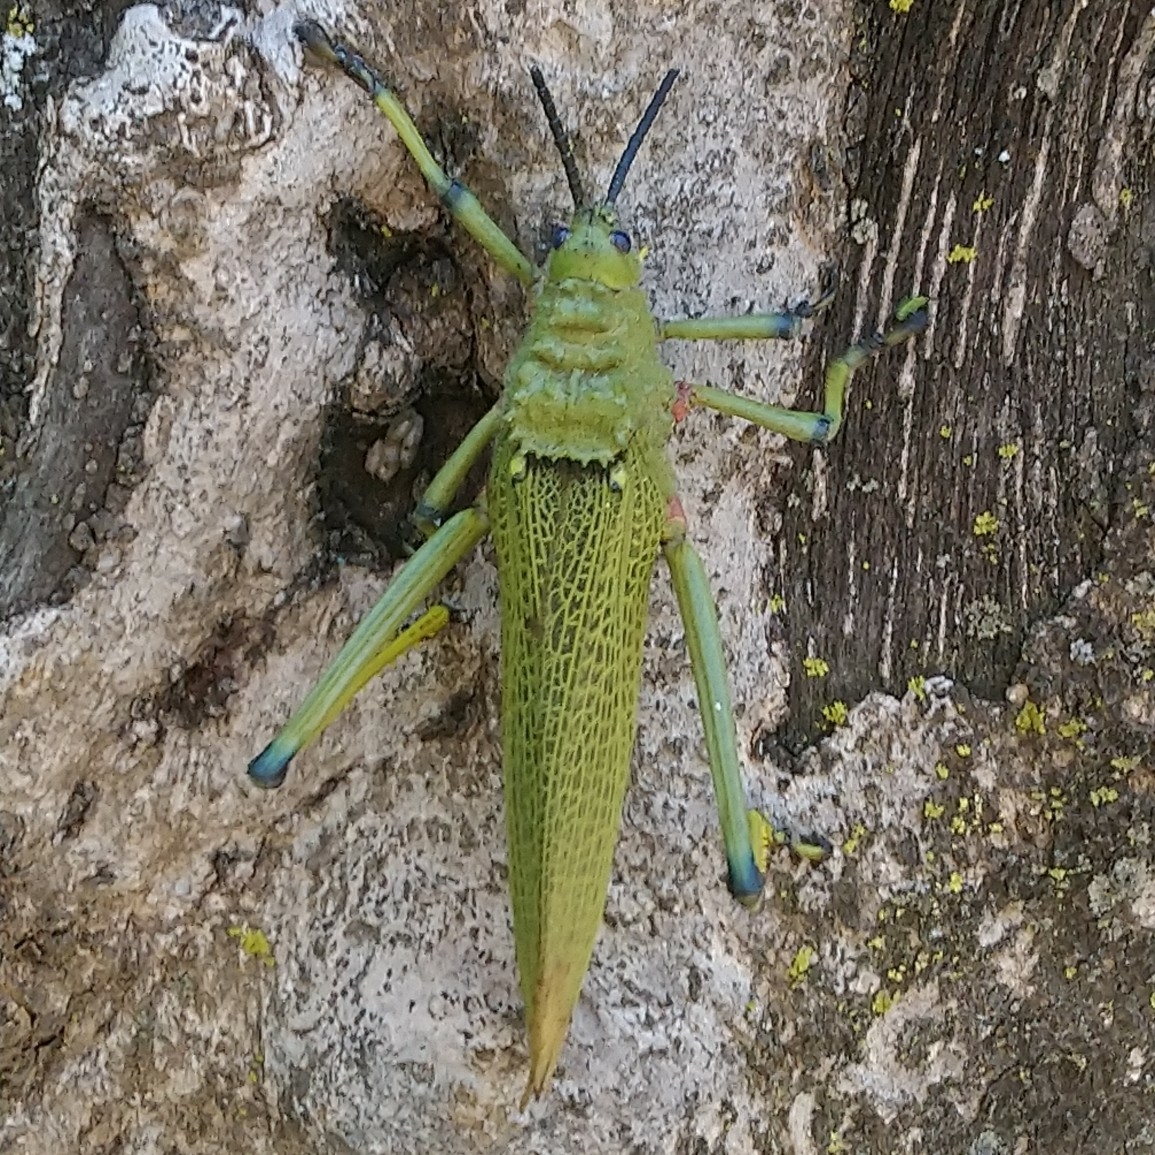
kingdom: Animalia
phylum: Arthropoda
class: Insecta
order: Orthoptera
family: Pyrgomorphidae
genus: Phymateus
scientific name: Phymateus viridipes
